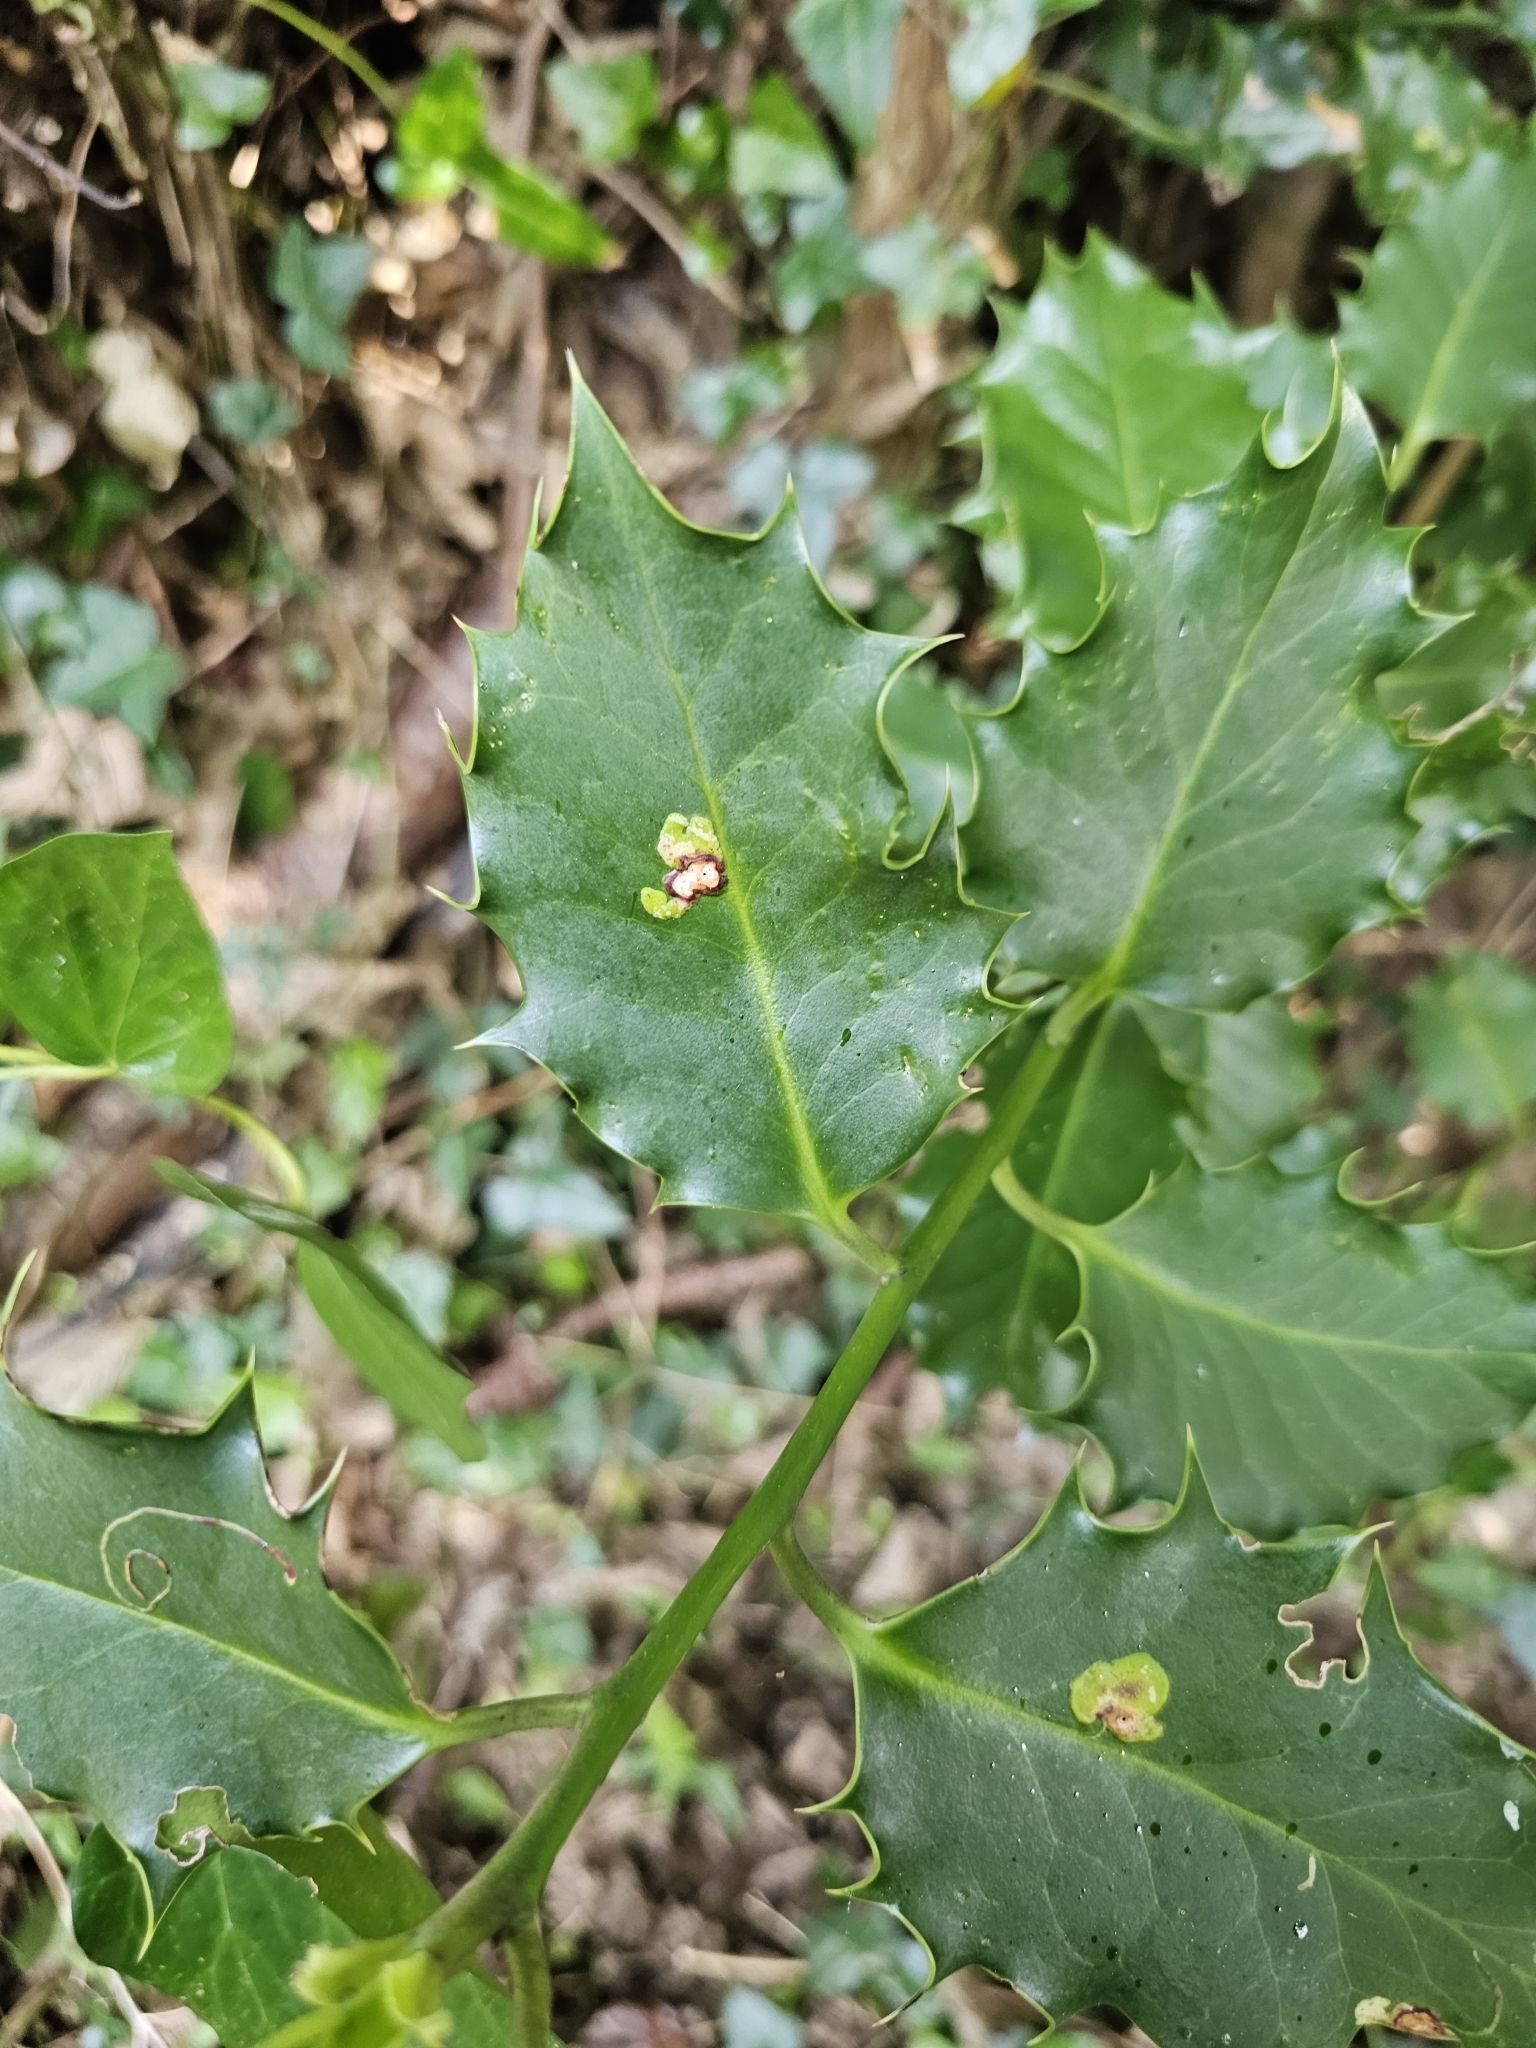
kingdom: Plantae
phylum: Tracheophyta
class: Magnoliopsida
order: Aquifoliales
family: Aquifoliaceae
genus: Ilex
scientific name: Ilex aquifolium
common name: English holly
